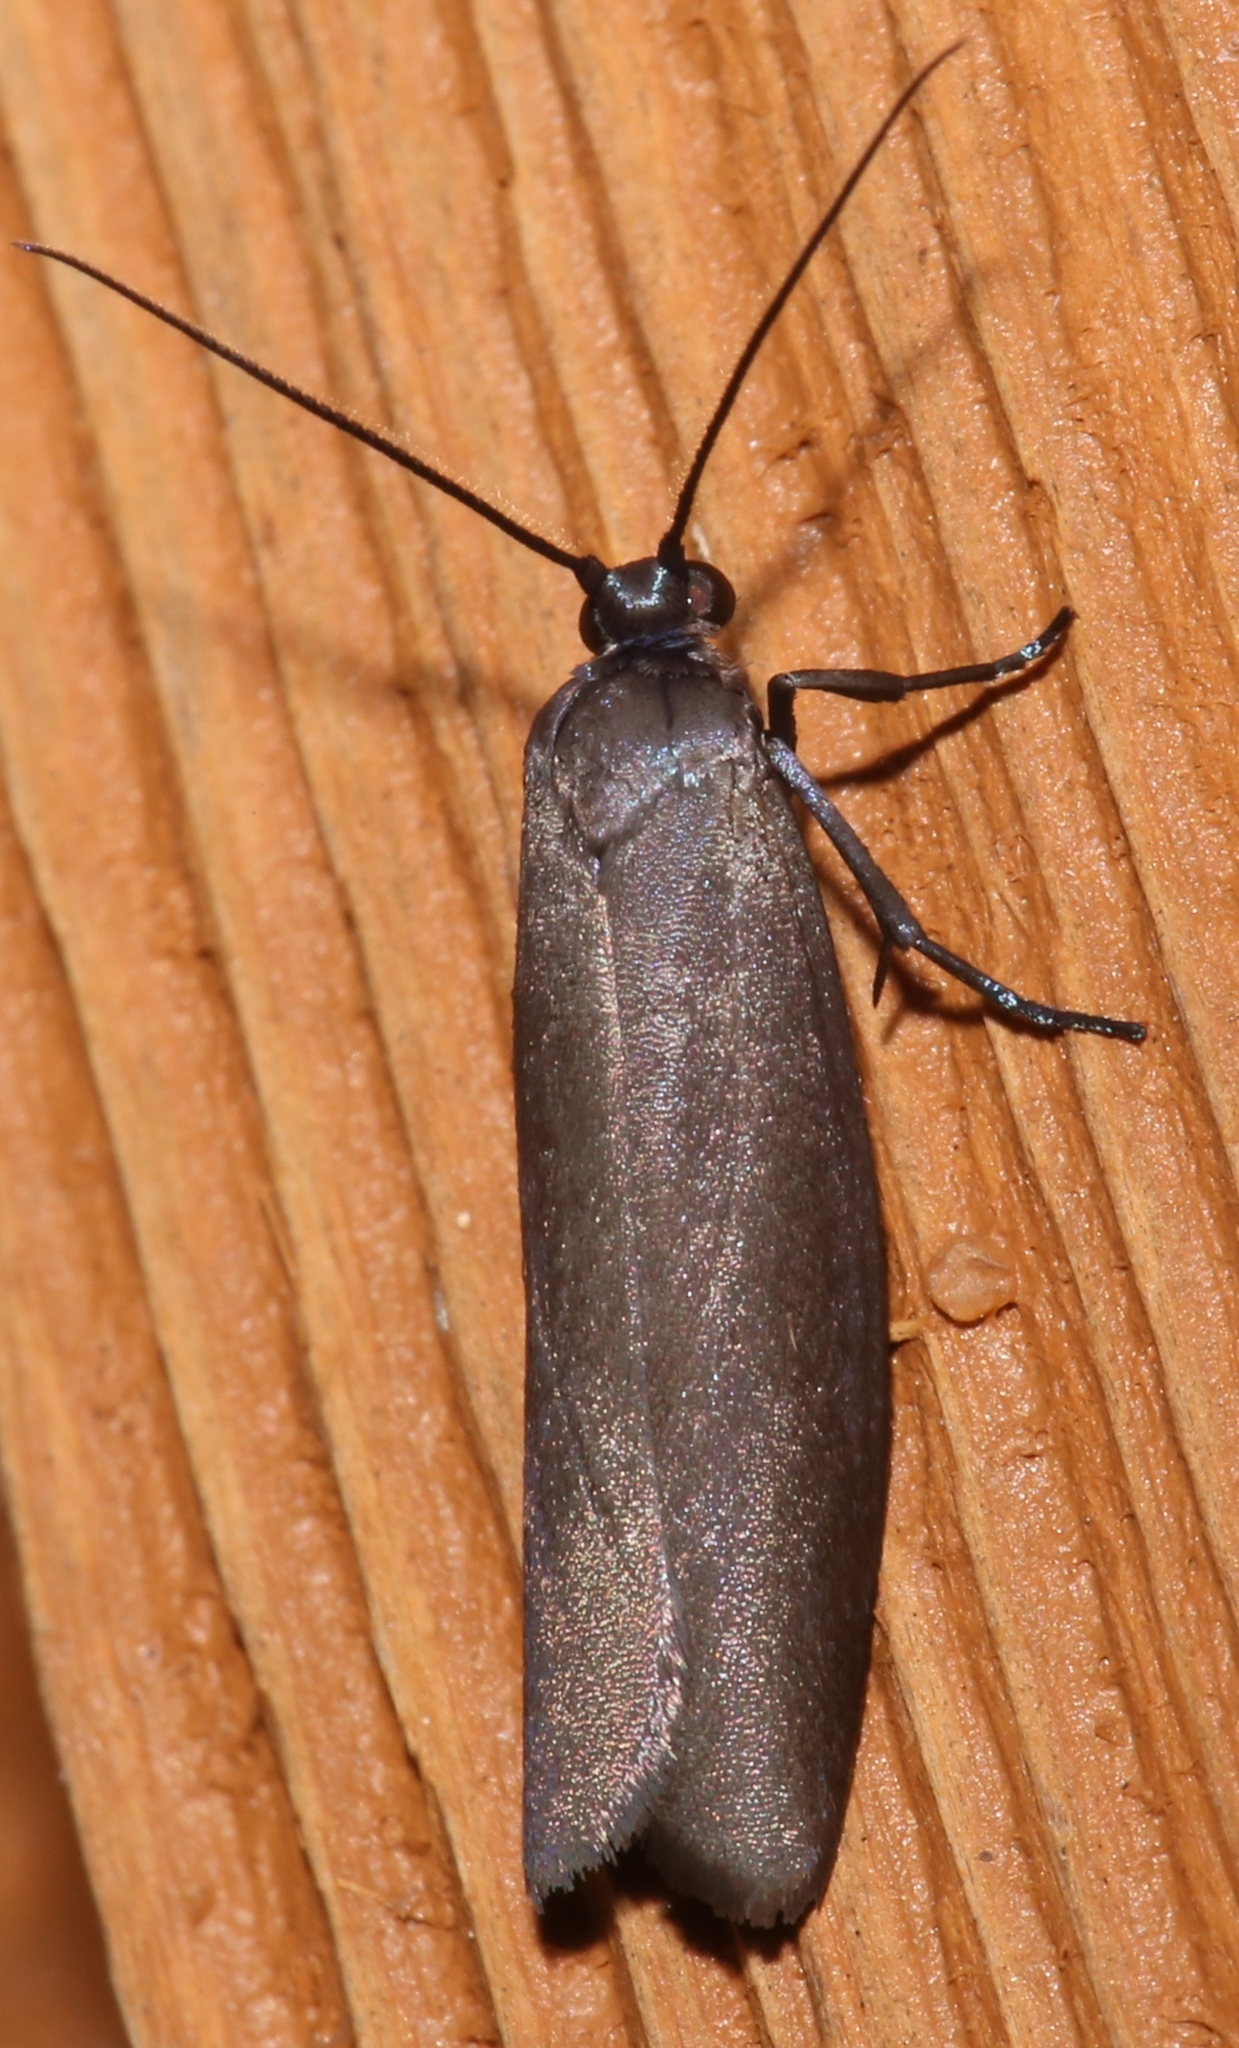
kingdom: Animalia
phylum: Arthropoda
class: Insecta
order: Lepidoptera
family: Urodidae
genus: Urodus
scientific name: Urodus parvula
